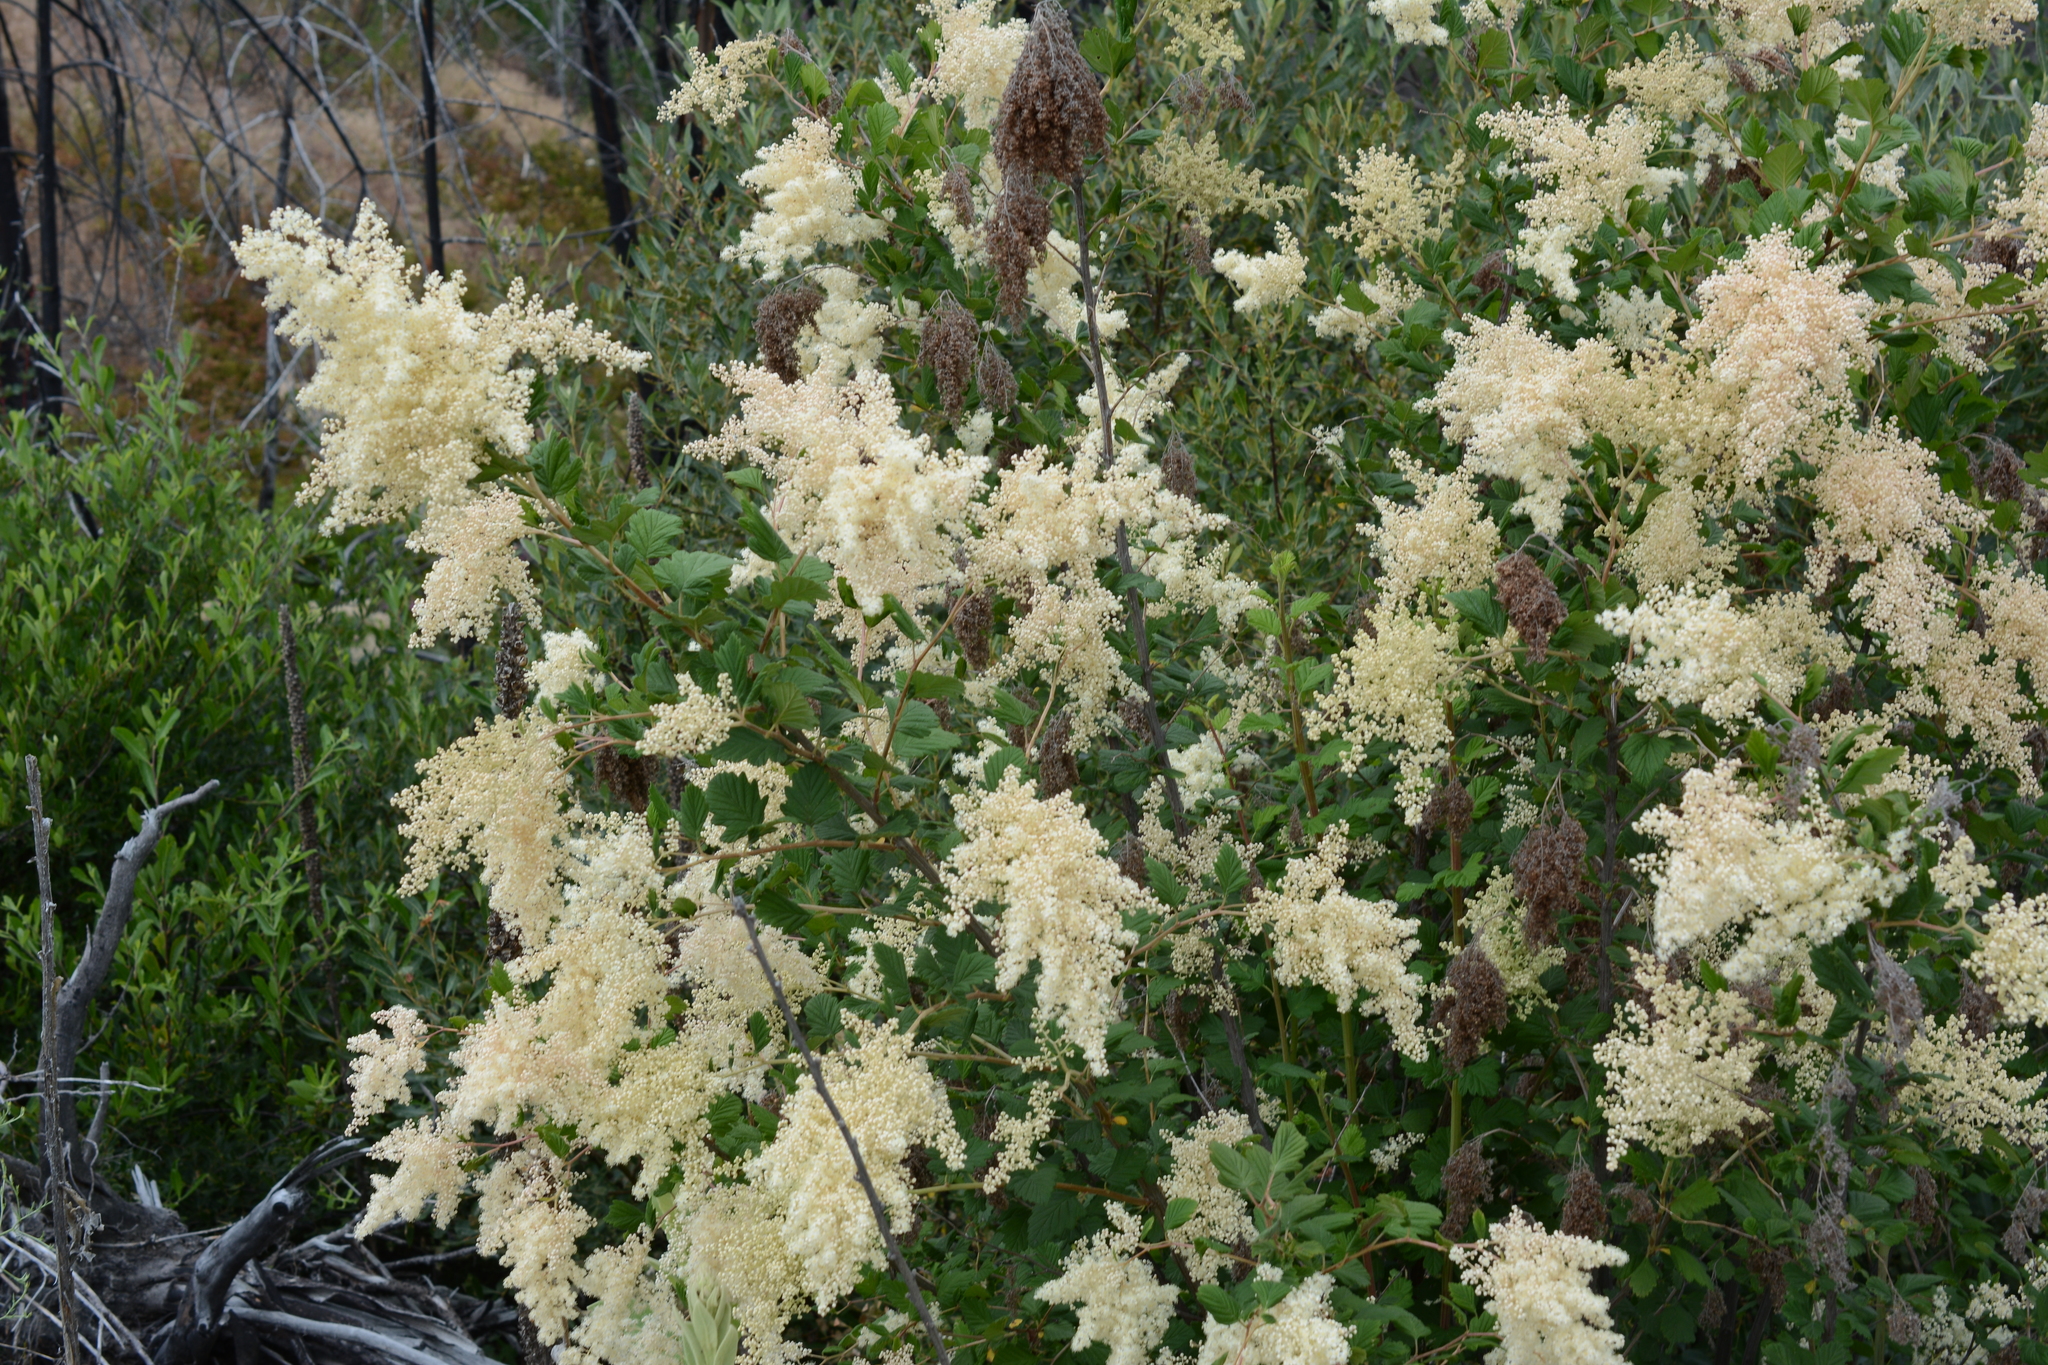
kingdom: Plantae
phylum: Tracheophyta
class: Magnoliopsida
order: Rosales
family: Rosaceae
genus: Holodiscus
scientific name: Holodiscus discolor
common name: Oceanspray
